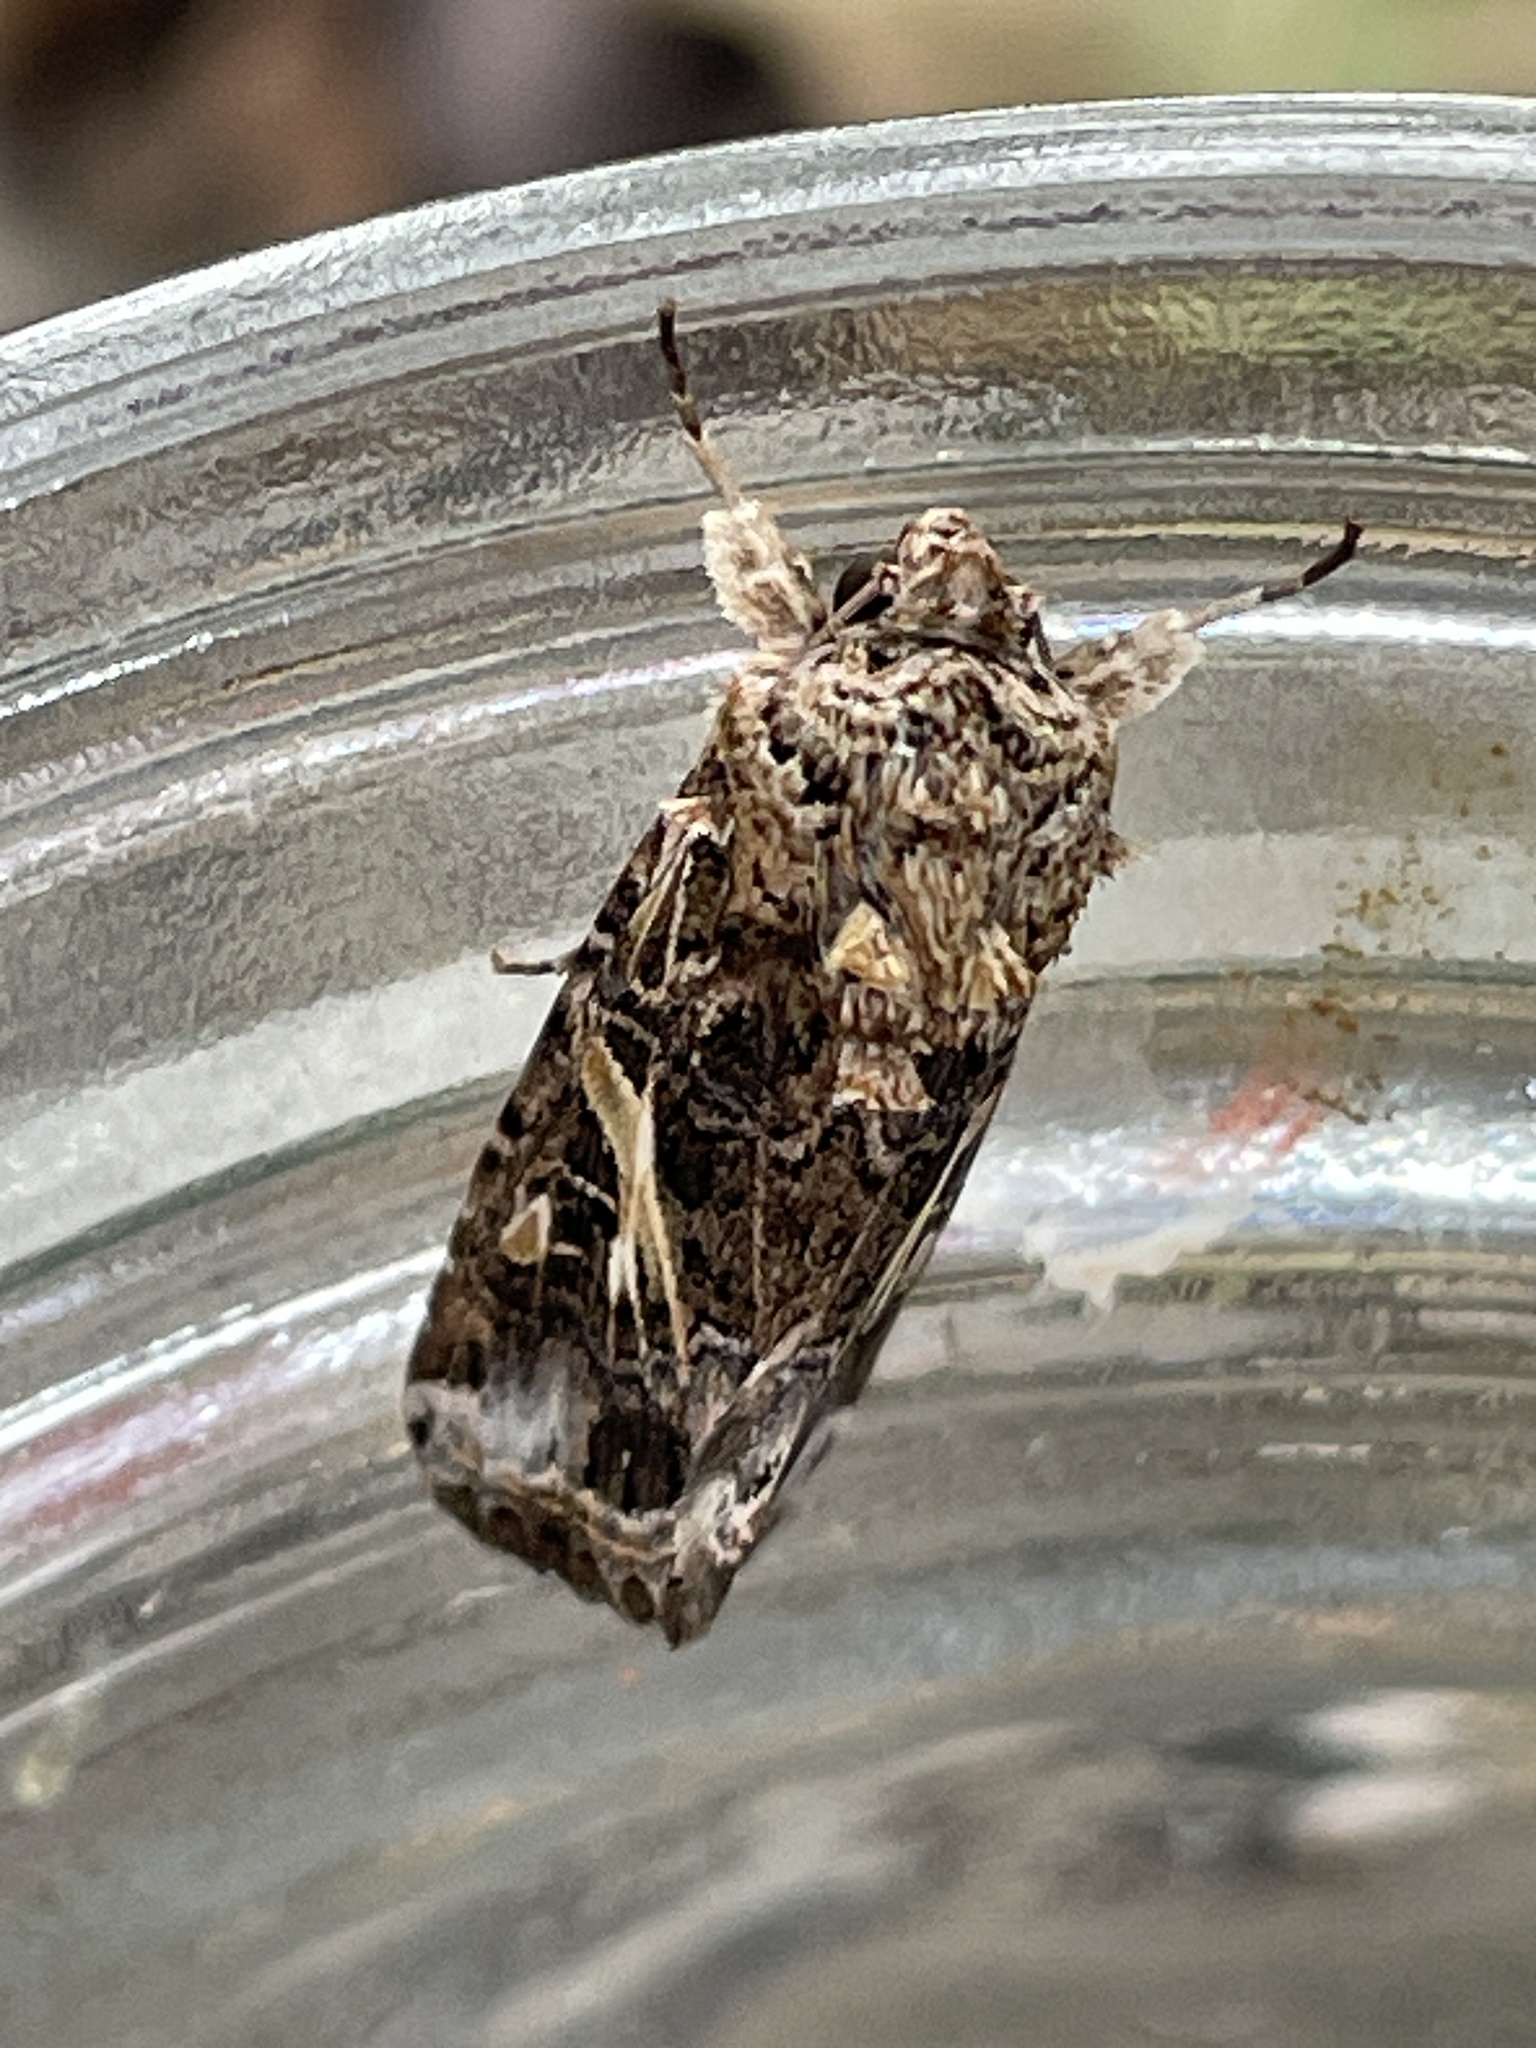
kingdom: Animalia
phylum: Arthropoda
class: Insecta
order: Lepidoptera
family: Noctuidae
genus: Spodoptera
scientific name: Spodoptera ornithogalli
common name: Yellow-striped armyworm
